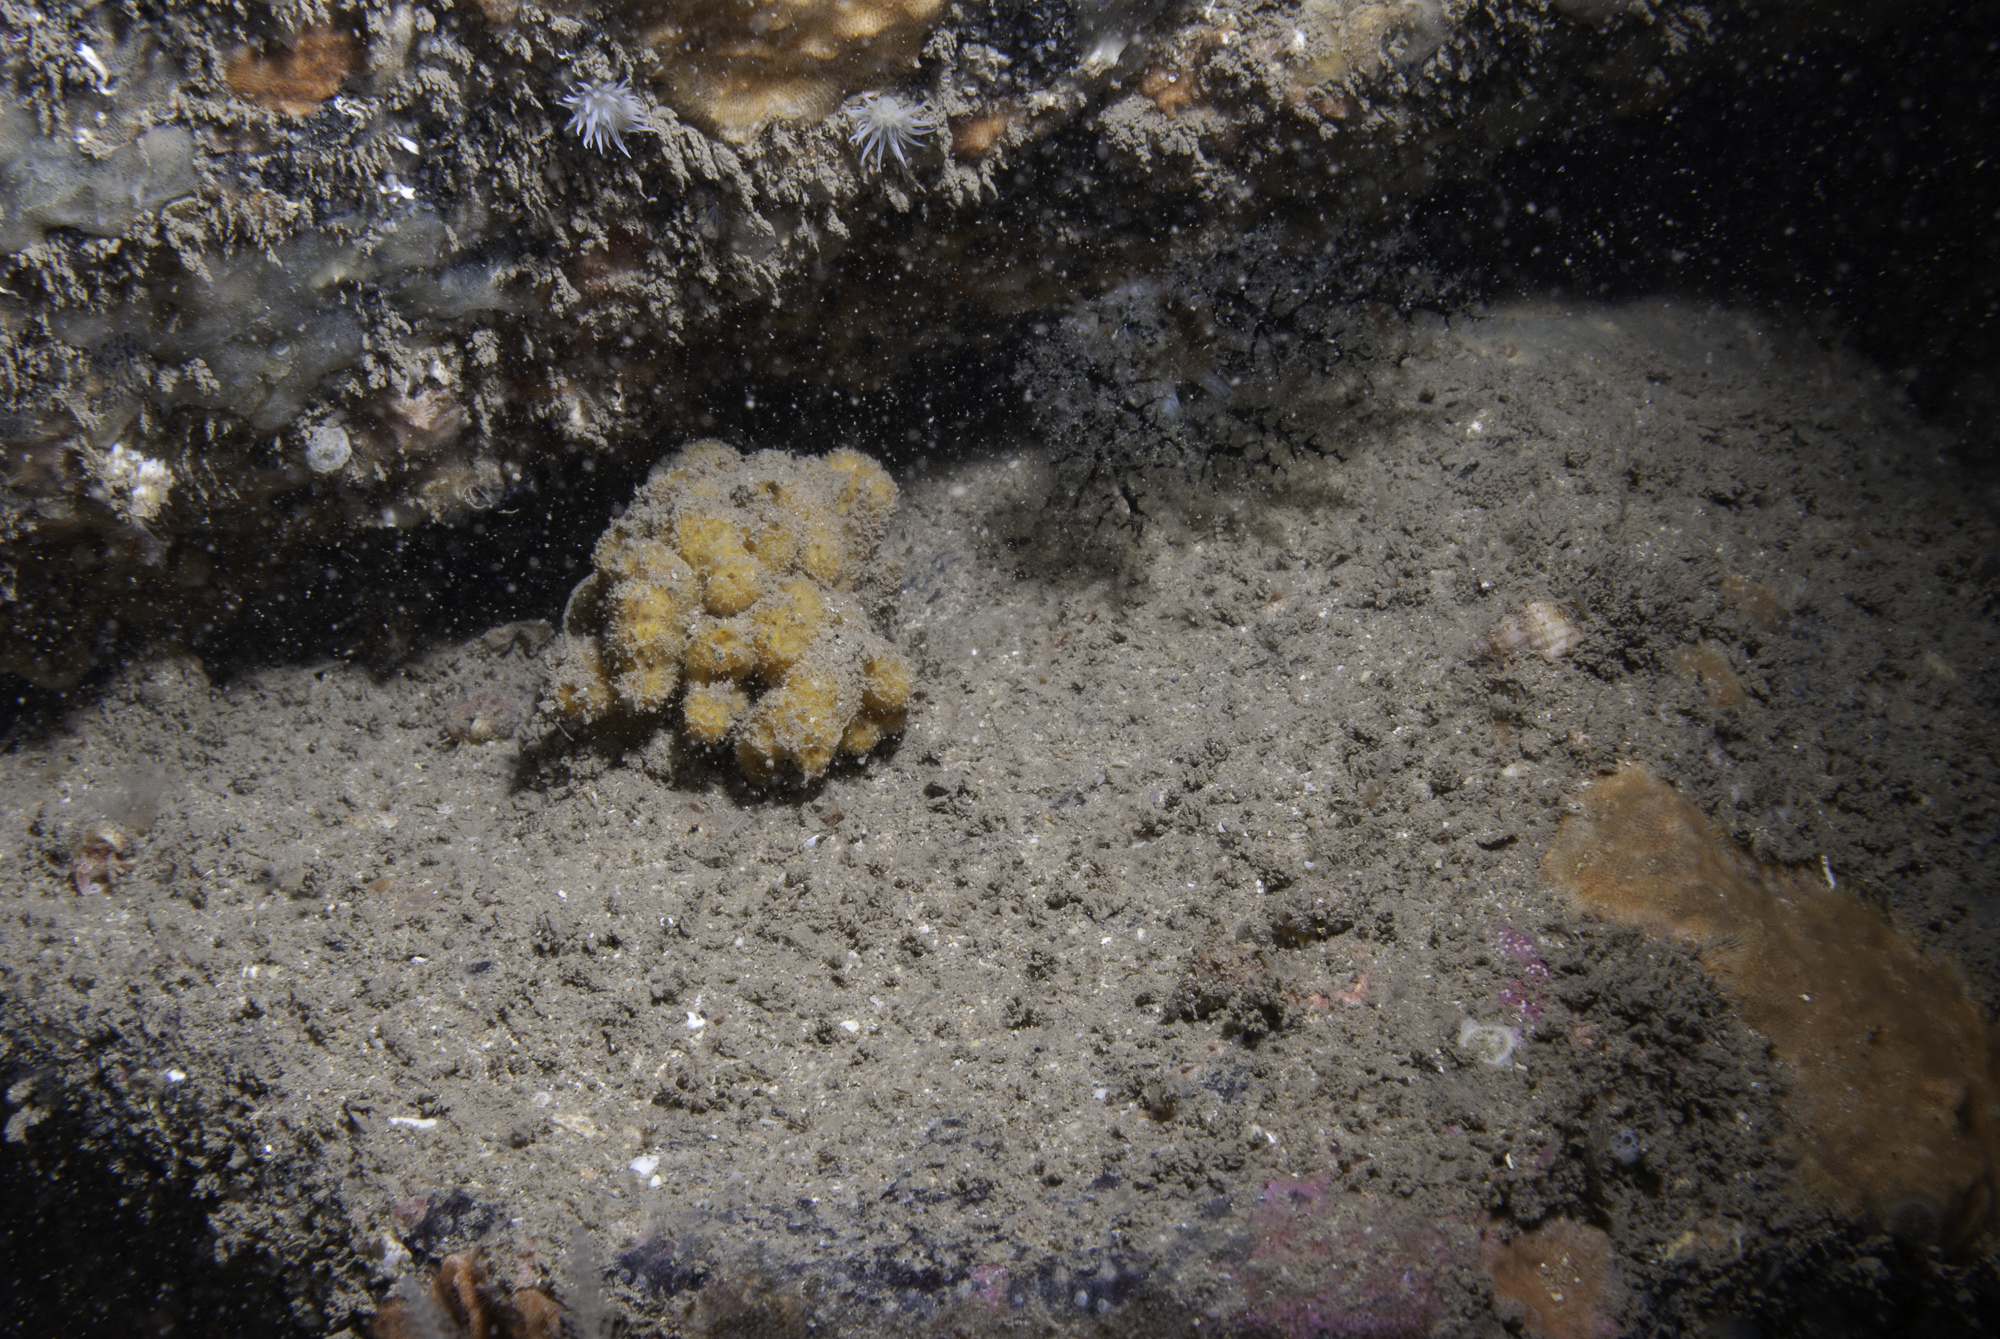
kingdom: Animalia
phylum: Porifera
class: Demospongiae
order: Axinellida
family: Stelligeridae
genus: Stelligera
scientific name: Stelligera montagui
